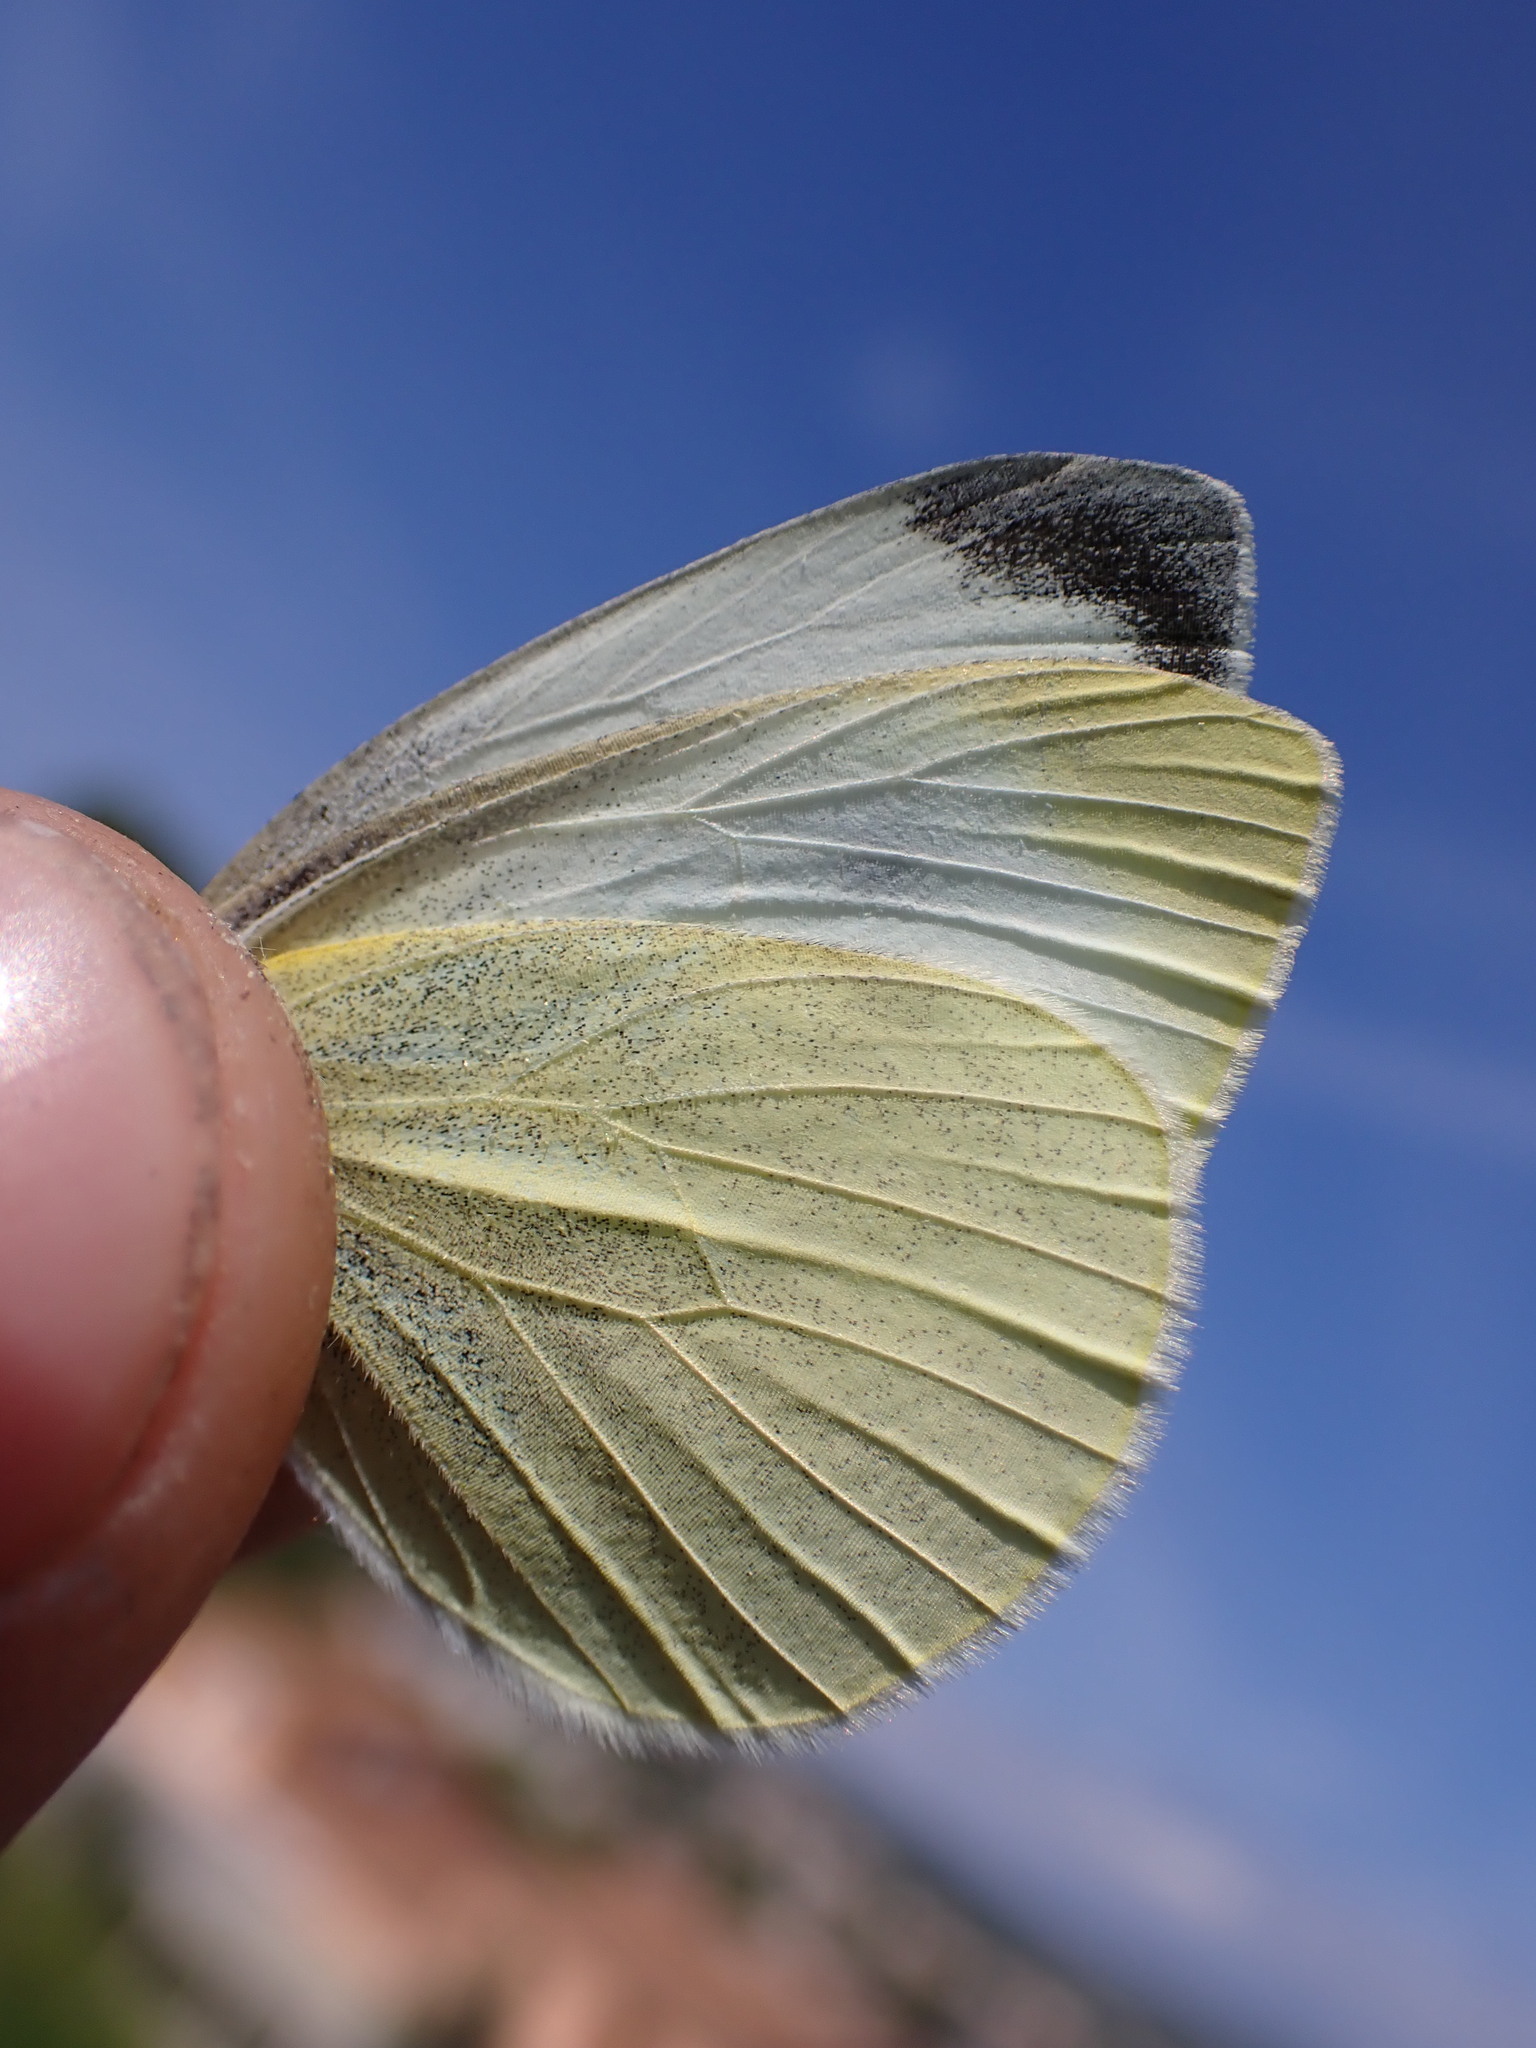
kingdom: Animalia
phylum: Arthropoda
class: Insecta
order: Lepidoptera
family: Pieridae
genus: Pieris
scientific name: Pieris rapae
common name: Small white
